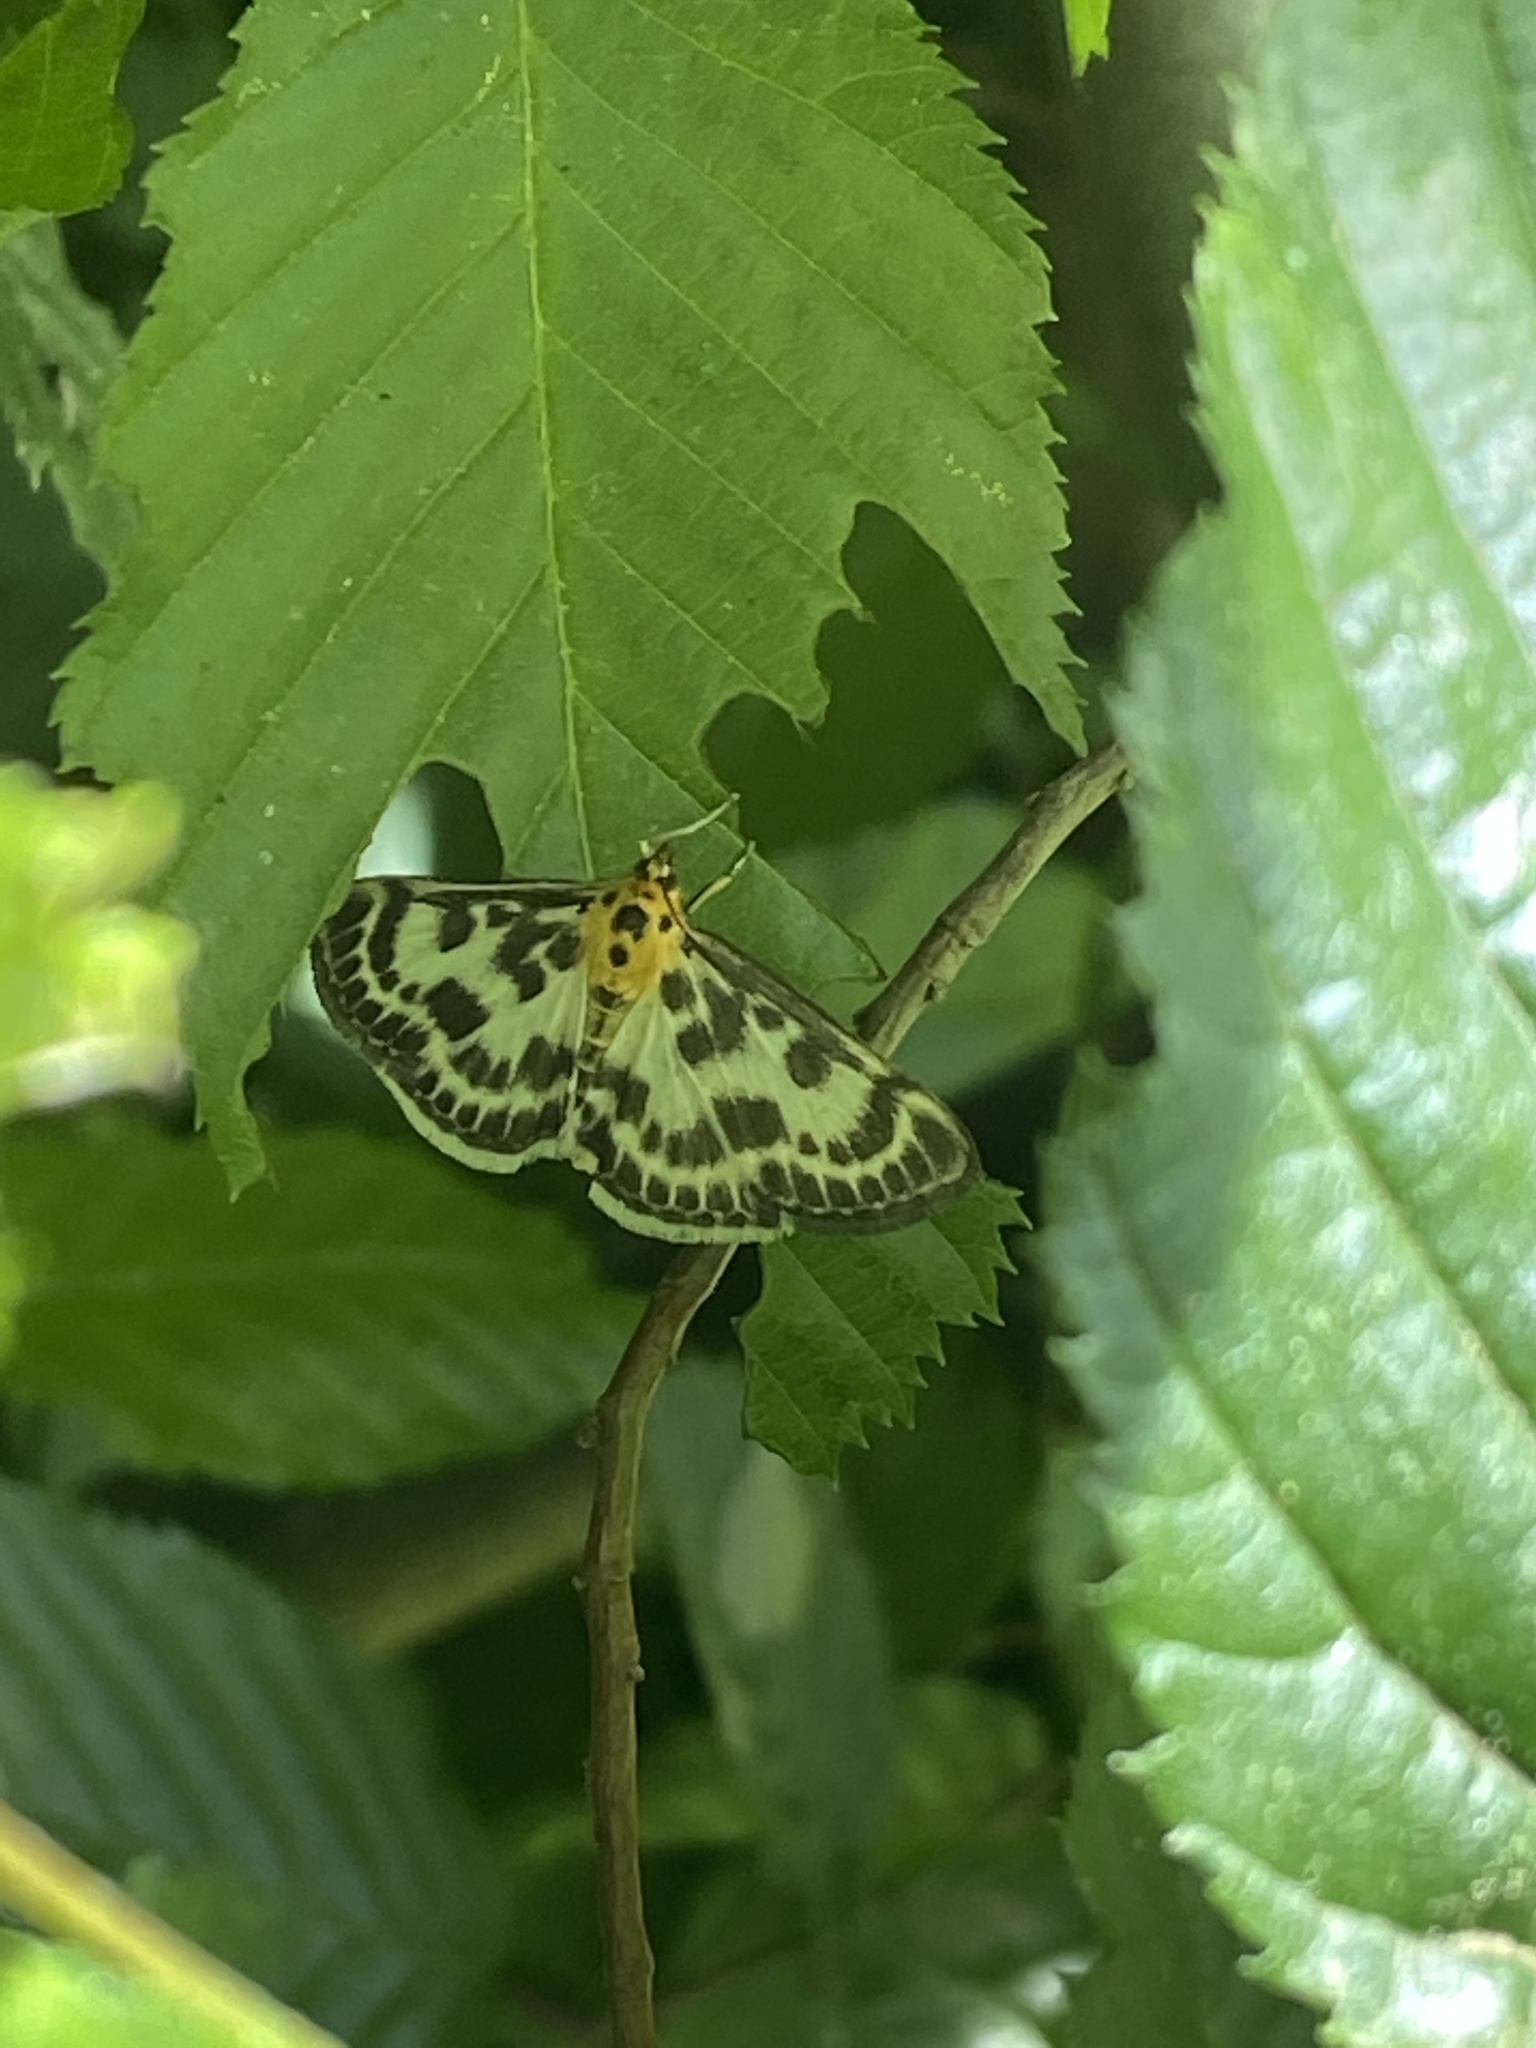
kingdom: Animalia
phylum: Arthropoda
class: Insecta
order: Lepidoptera
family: Crambidae
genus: Anania
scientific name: Anania hortulata
